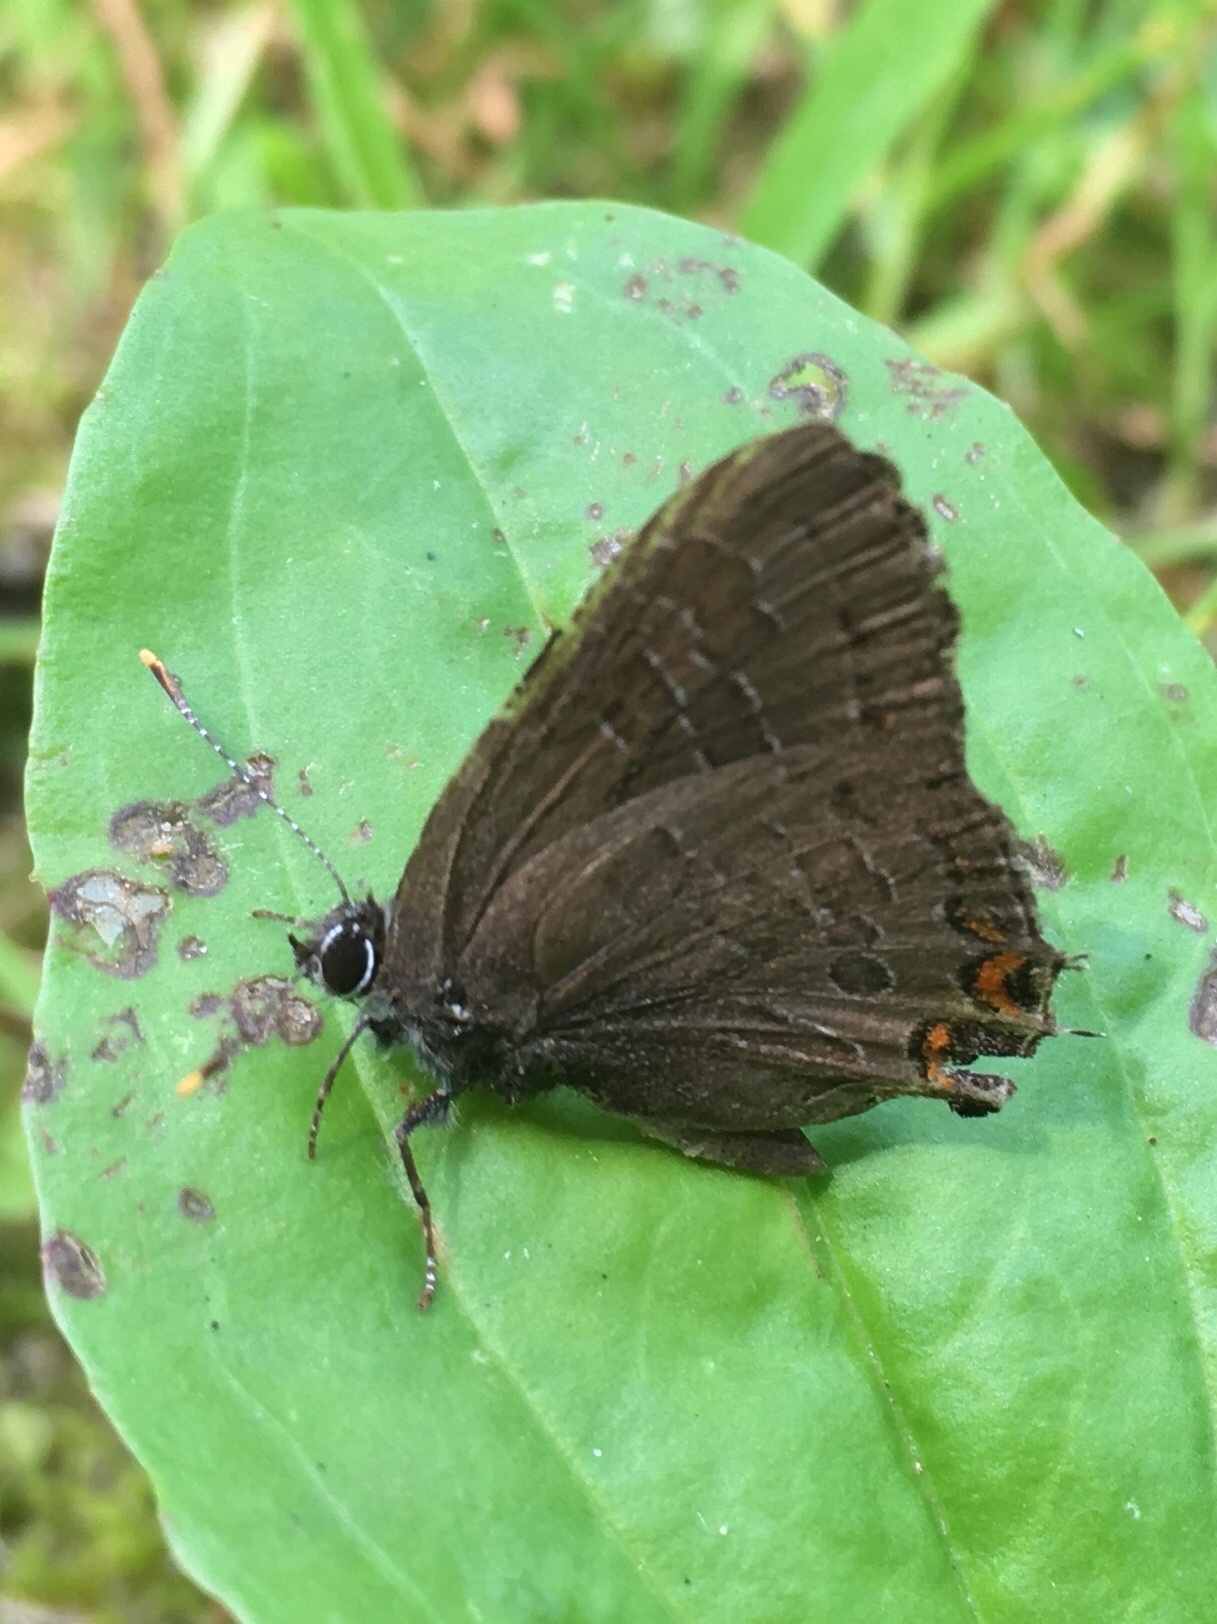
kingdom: Animalia
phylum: Arthropoda
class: Insecta
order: Lepidoptera
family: Lycaenidae
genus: Satyrium
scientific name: Satyrium liparops
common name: Striped hairstreak
